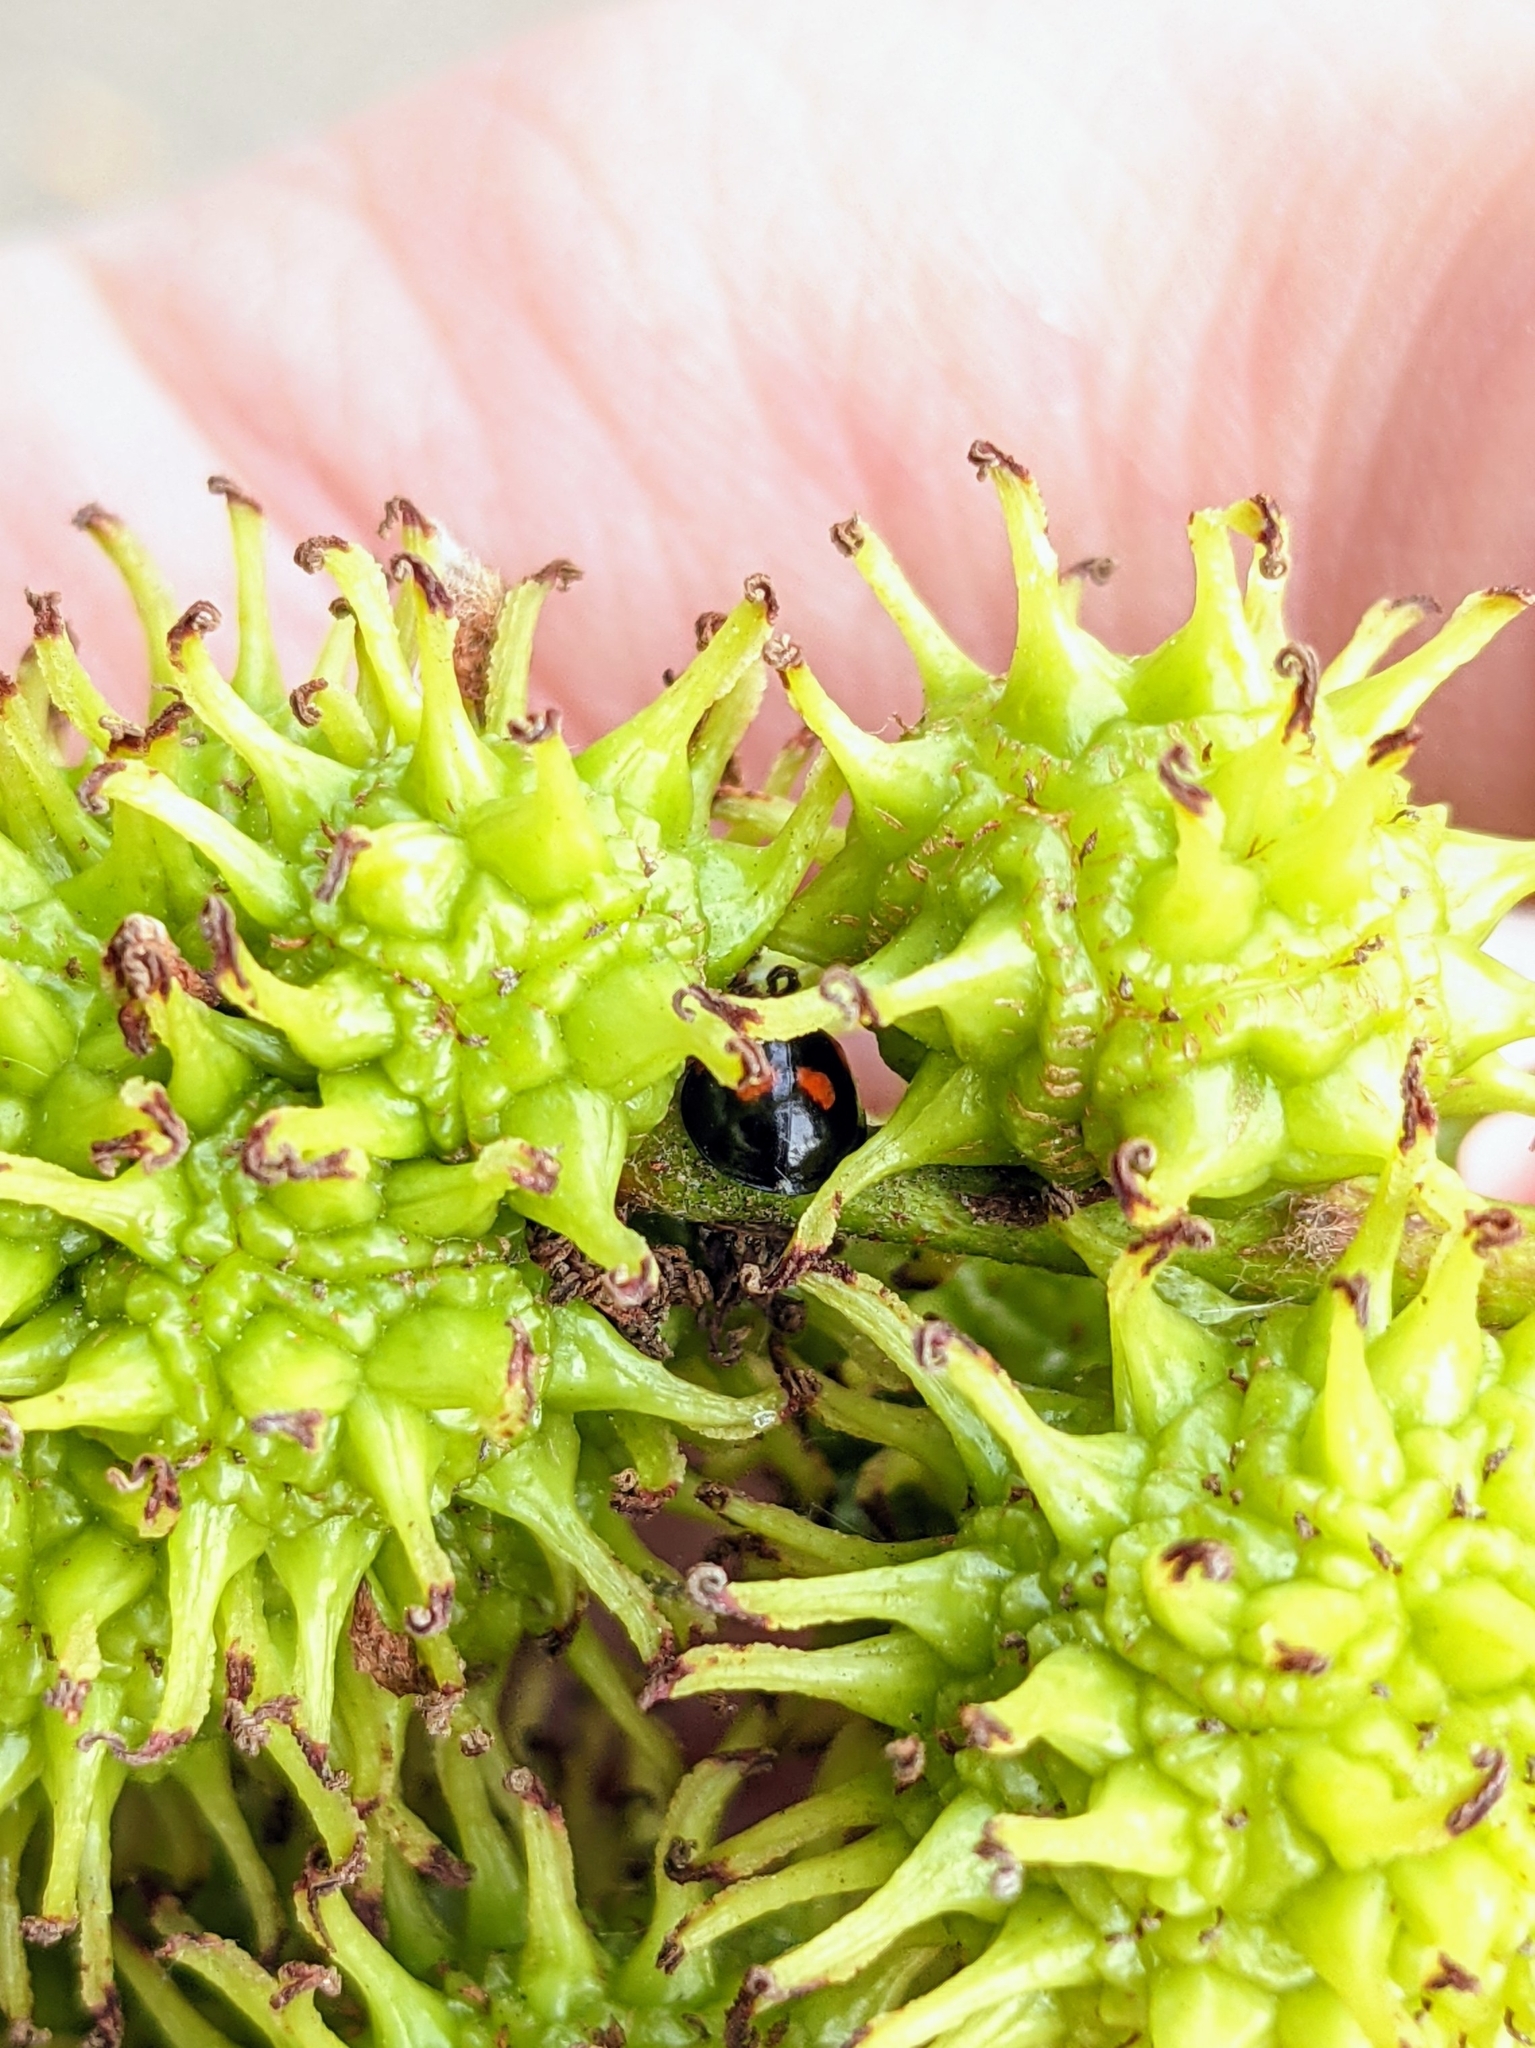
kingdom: Animalia
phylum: Arthropoda
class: Insecta
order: Coleoptera
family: Coccinellidae
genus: Brumus
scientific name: Brumus quadripustulatus
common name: Ladybird beetle
